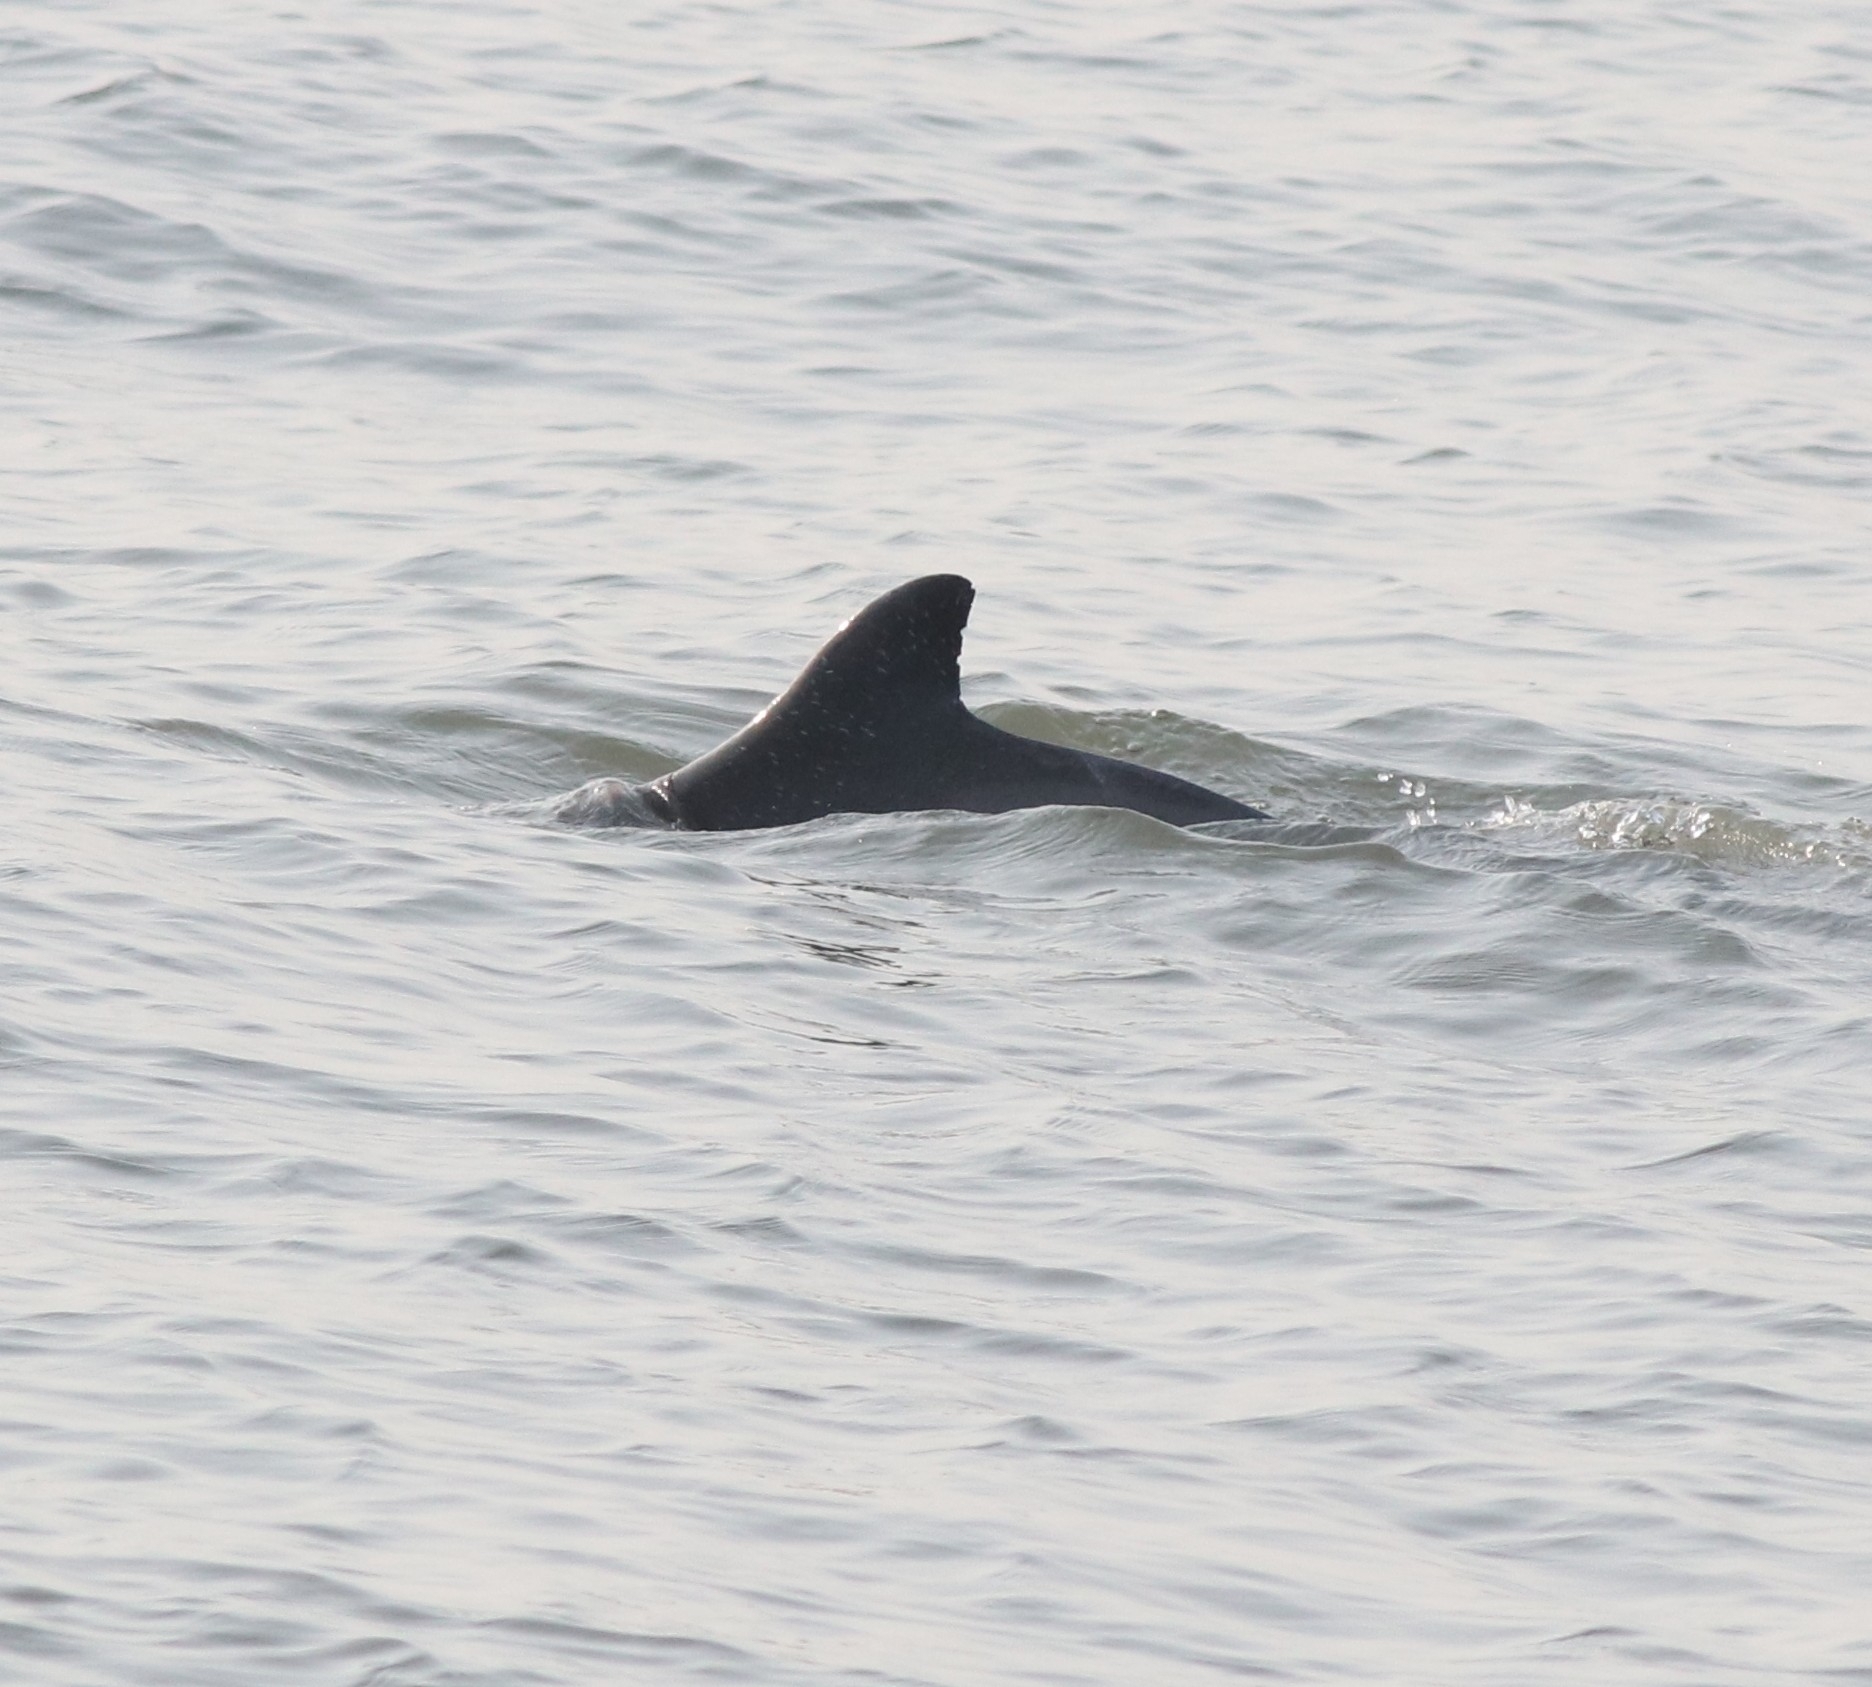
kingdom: Animalia
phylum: Chordata
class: Mammalia
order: Cetacea
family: Delphinidae
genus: Sousa
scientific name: Sousa plumbea
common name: Indian ocean humpback dolphin
